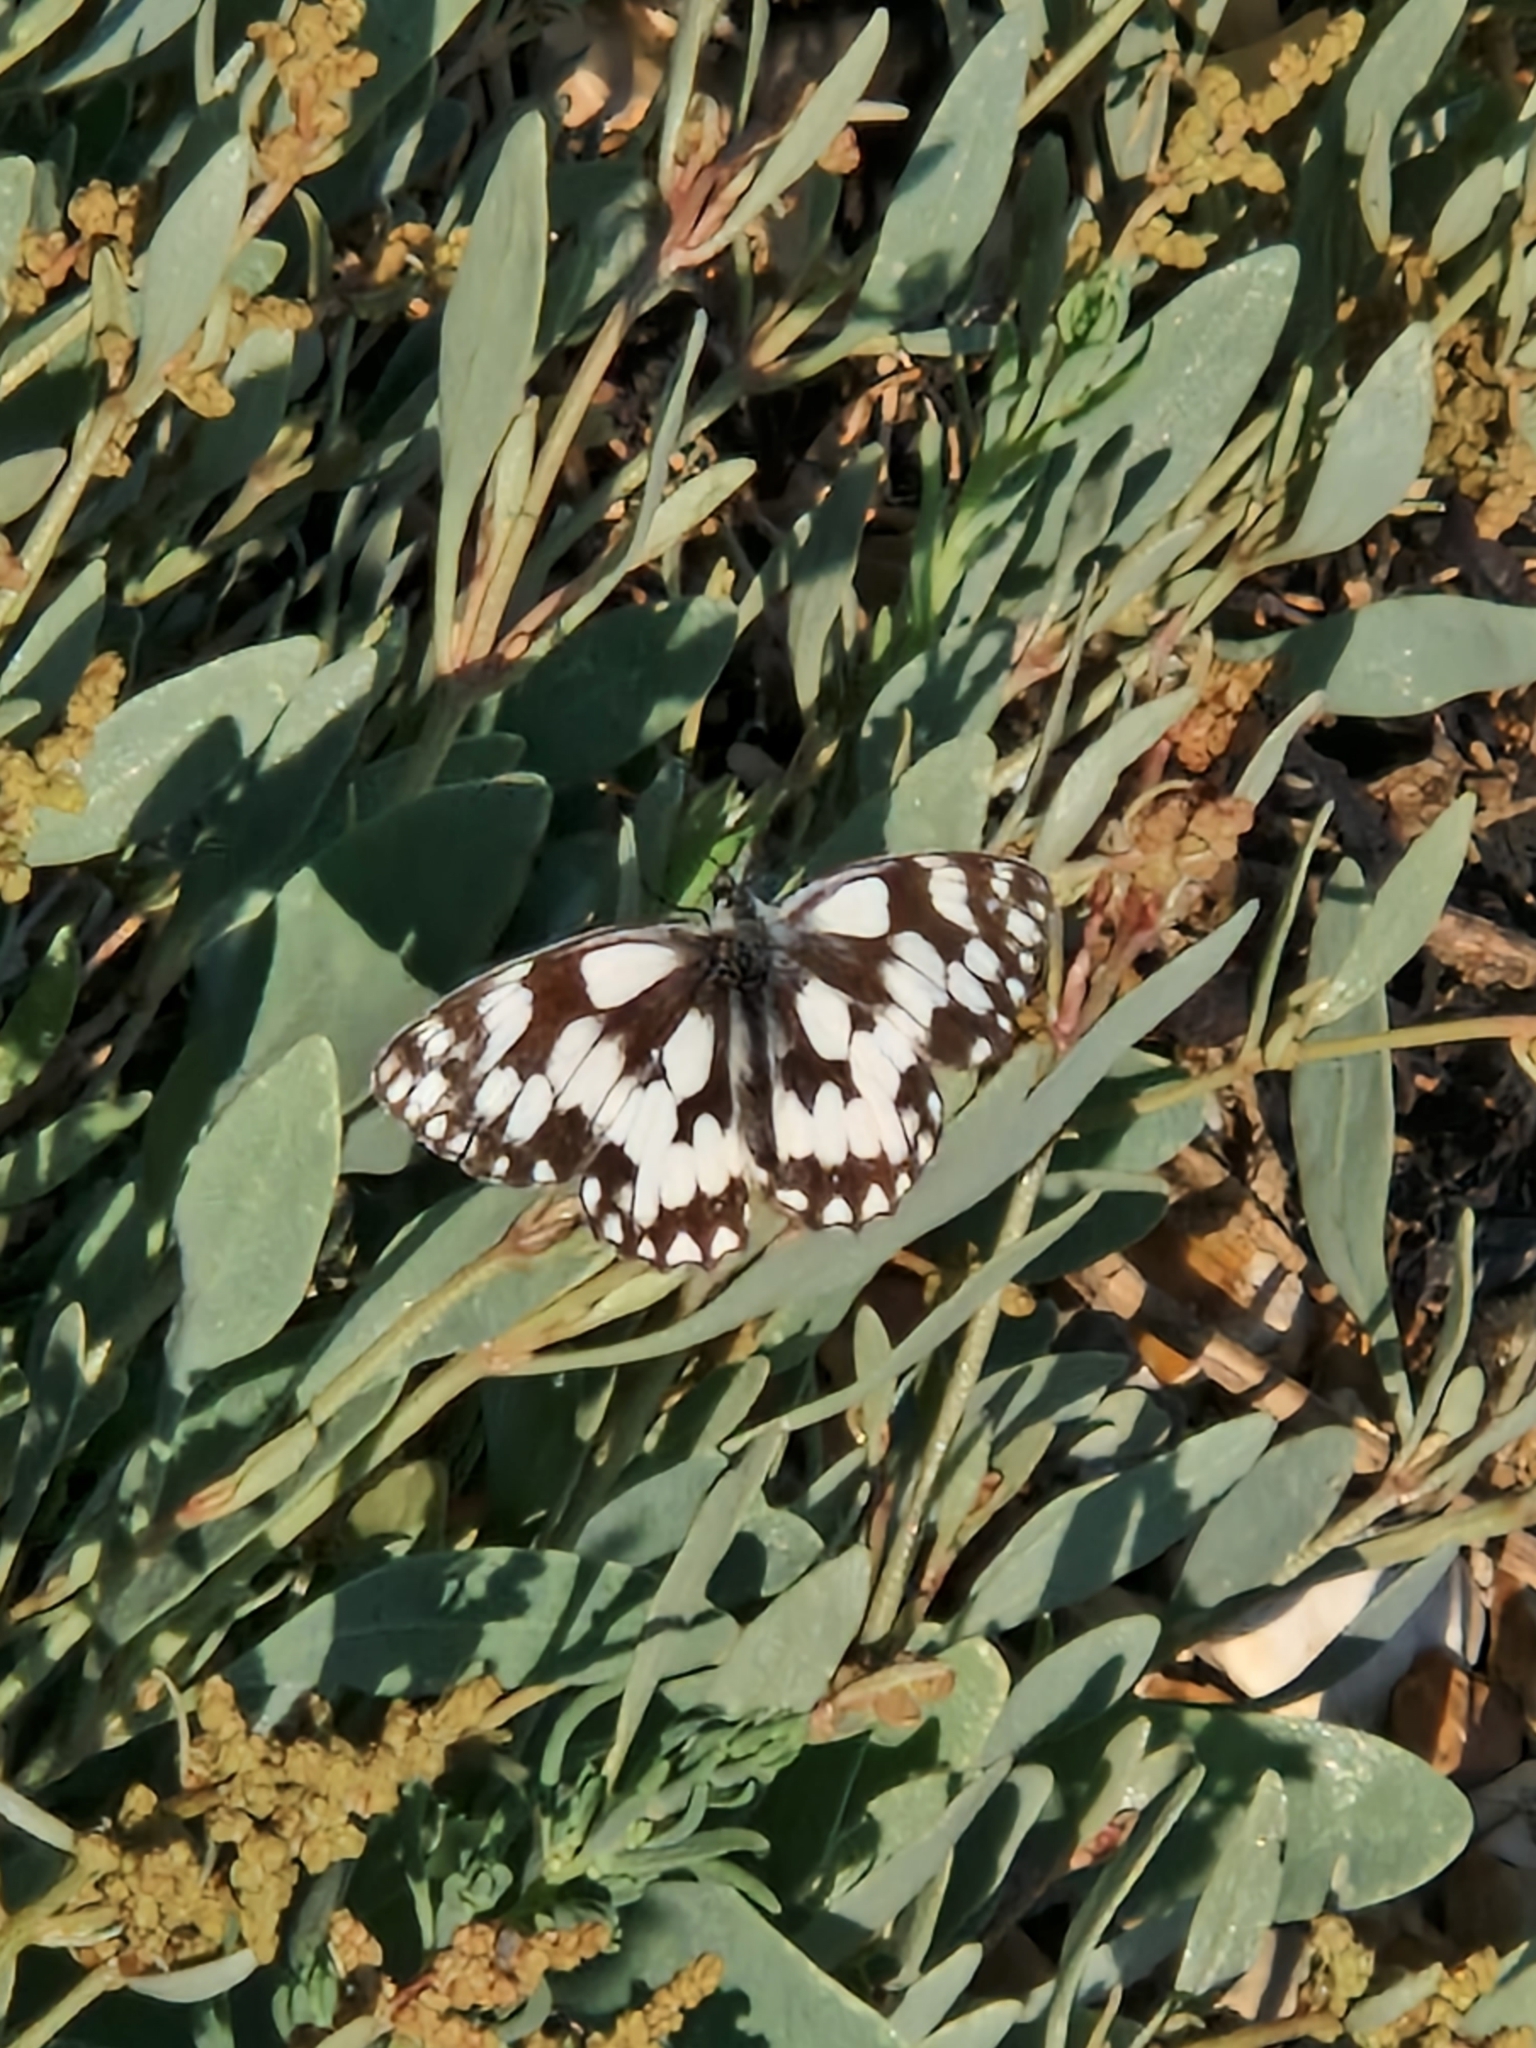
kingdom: Animalia
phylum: Arthropoda
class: Insecta
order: Lepidoptera
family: Nymphalidae
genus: Melanargia
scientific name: Melanargia galathea
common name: Marbled white
